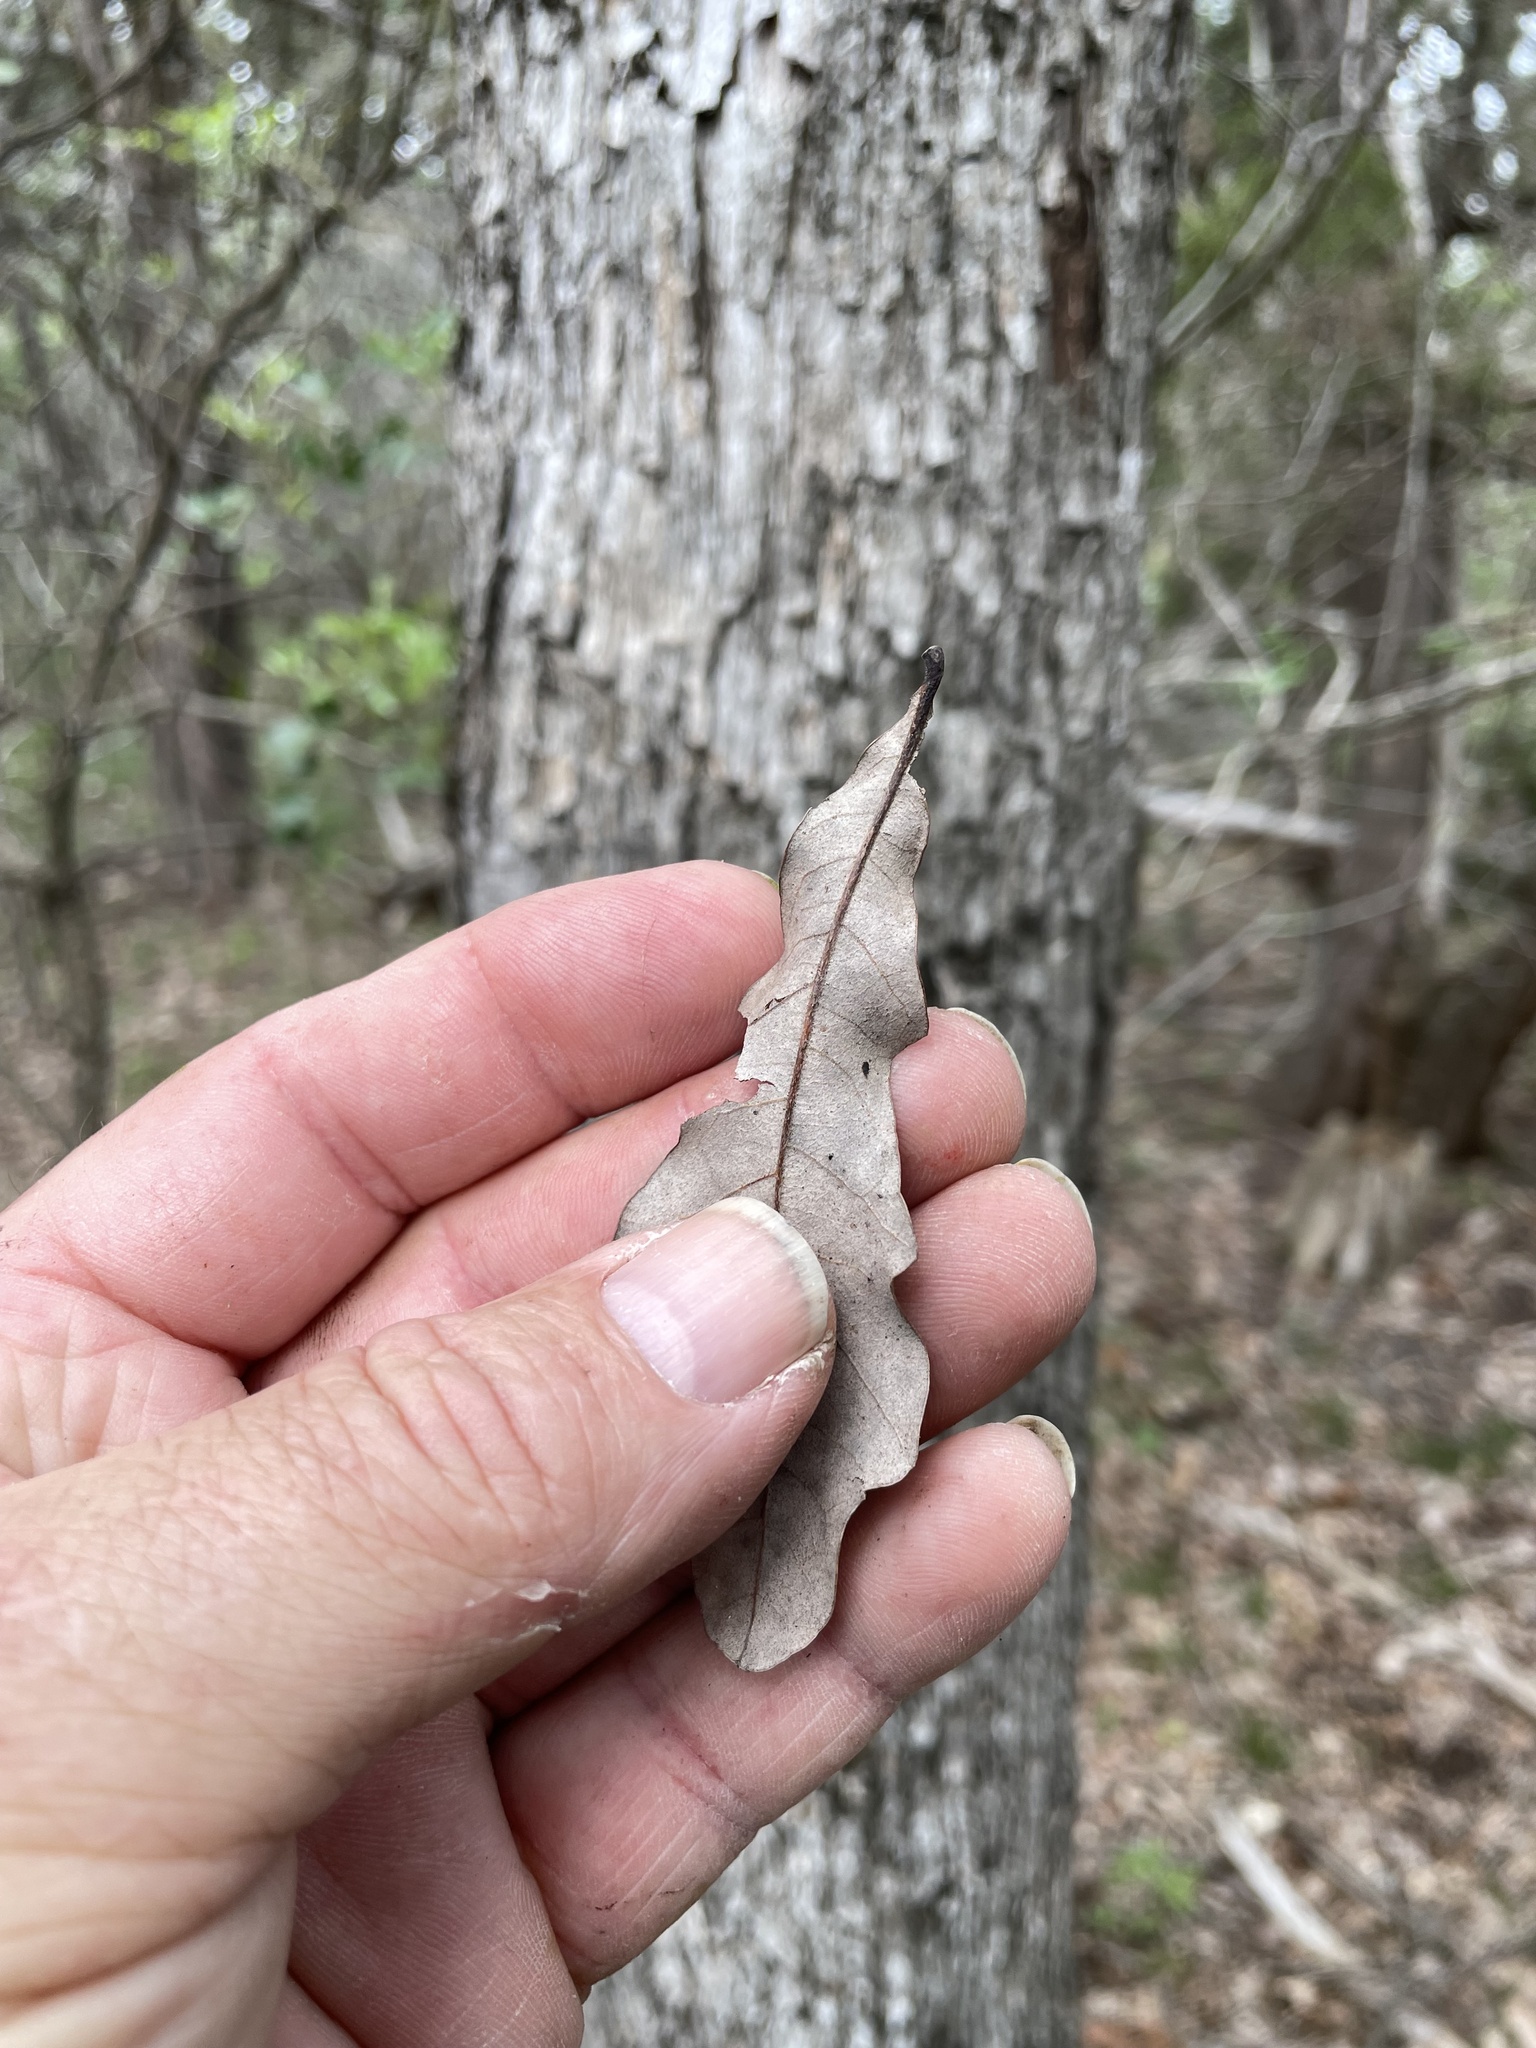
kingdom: Plantae
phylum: Tracheophyta
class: Magnoliopsida
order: Fagales
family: Fagaceae
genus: Quercus
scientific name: Quercus sinuata
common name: Durand oak
